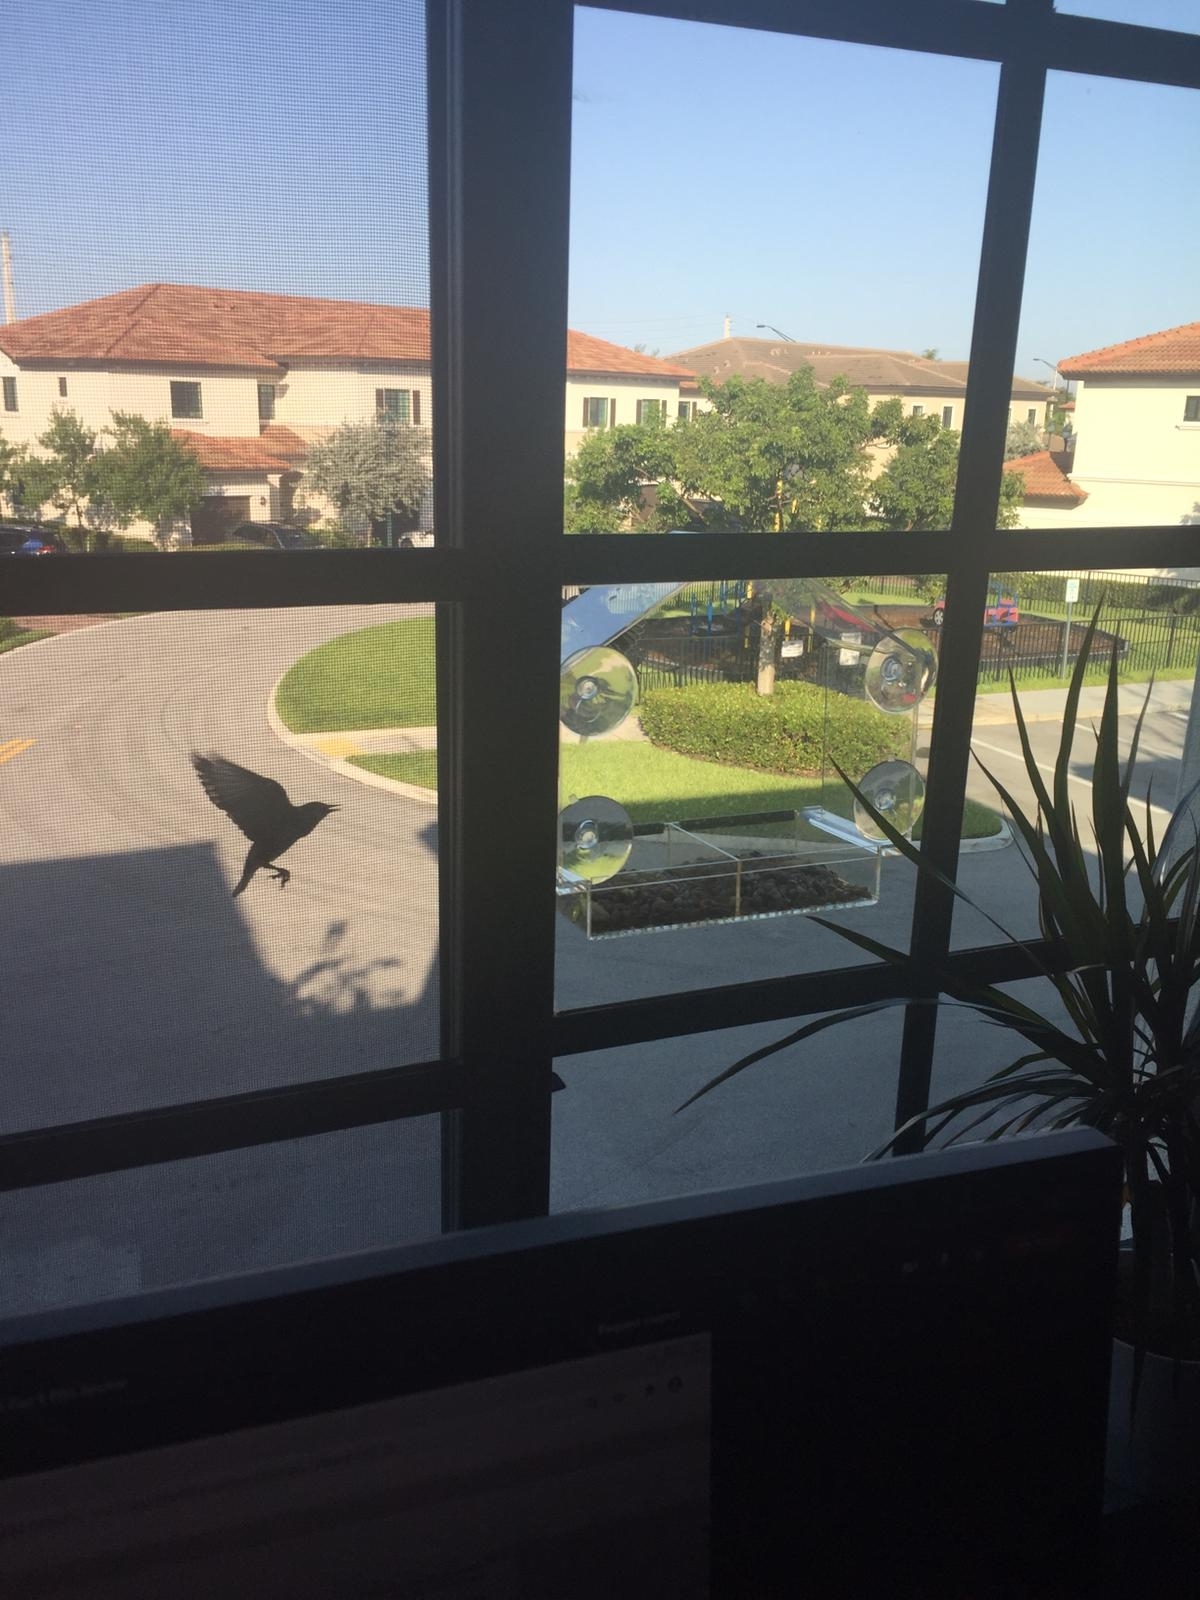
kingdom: Animalia
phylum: Chordata
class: Aves
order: Passeriformes
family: Sturnidae
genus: Sturnus
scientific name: Sturnus vulgaris
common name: Common starling
